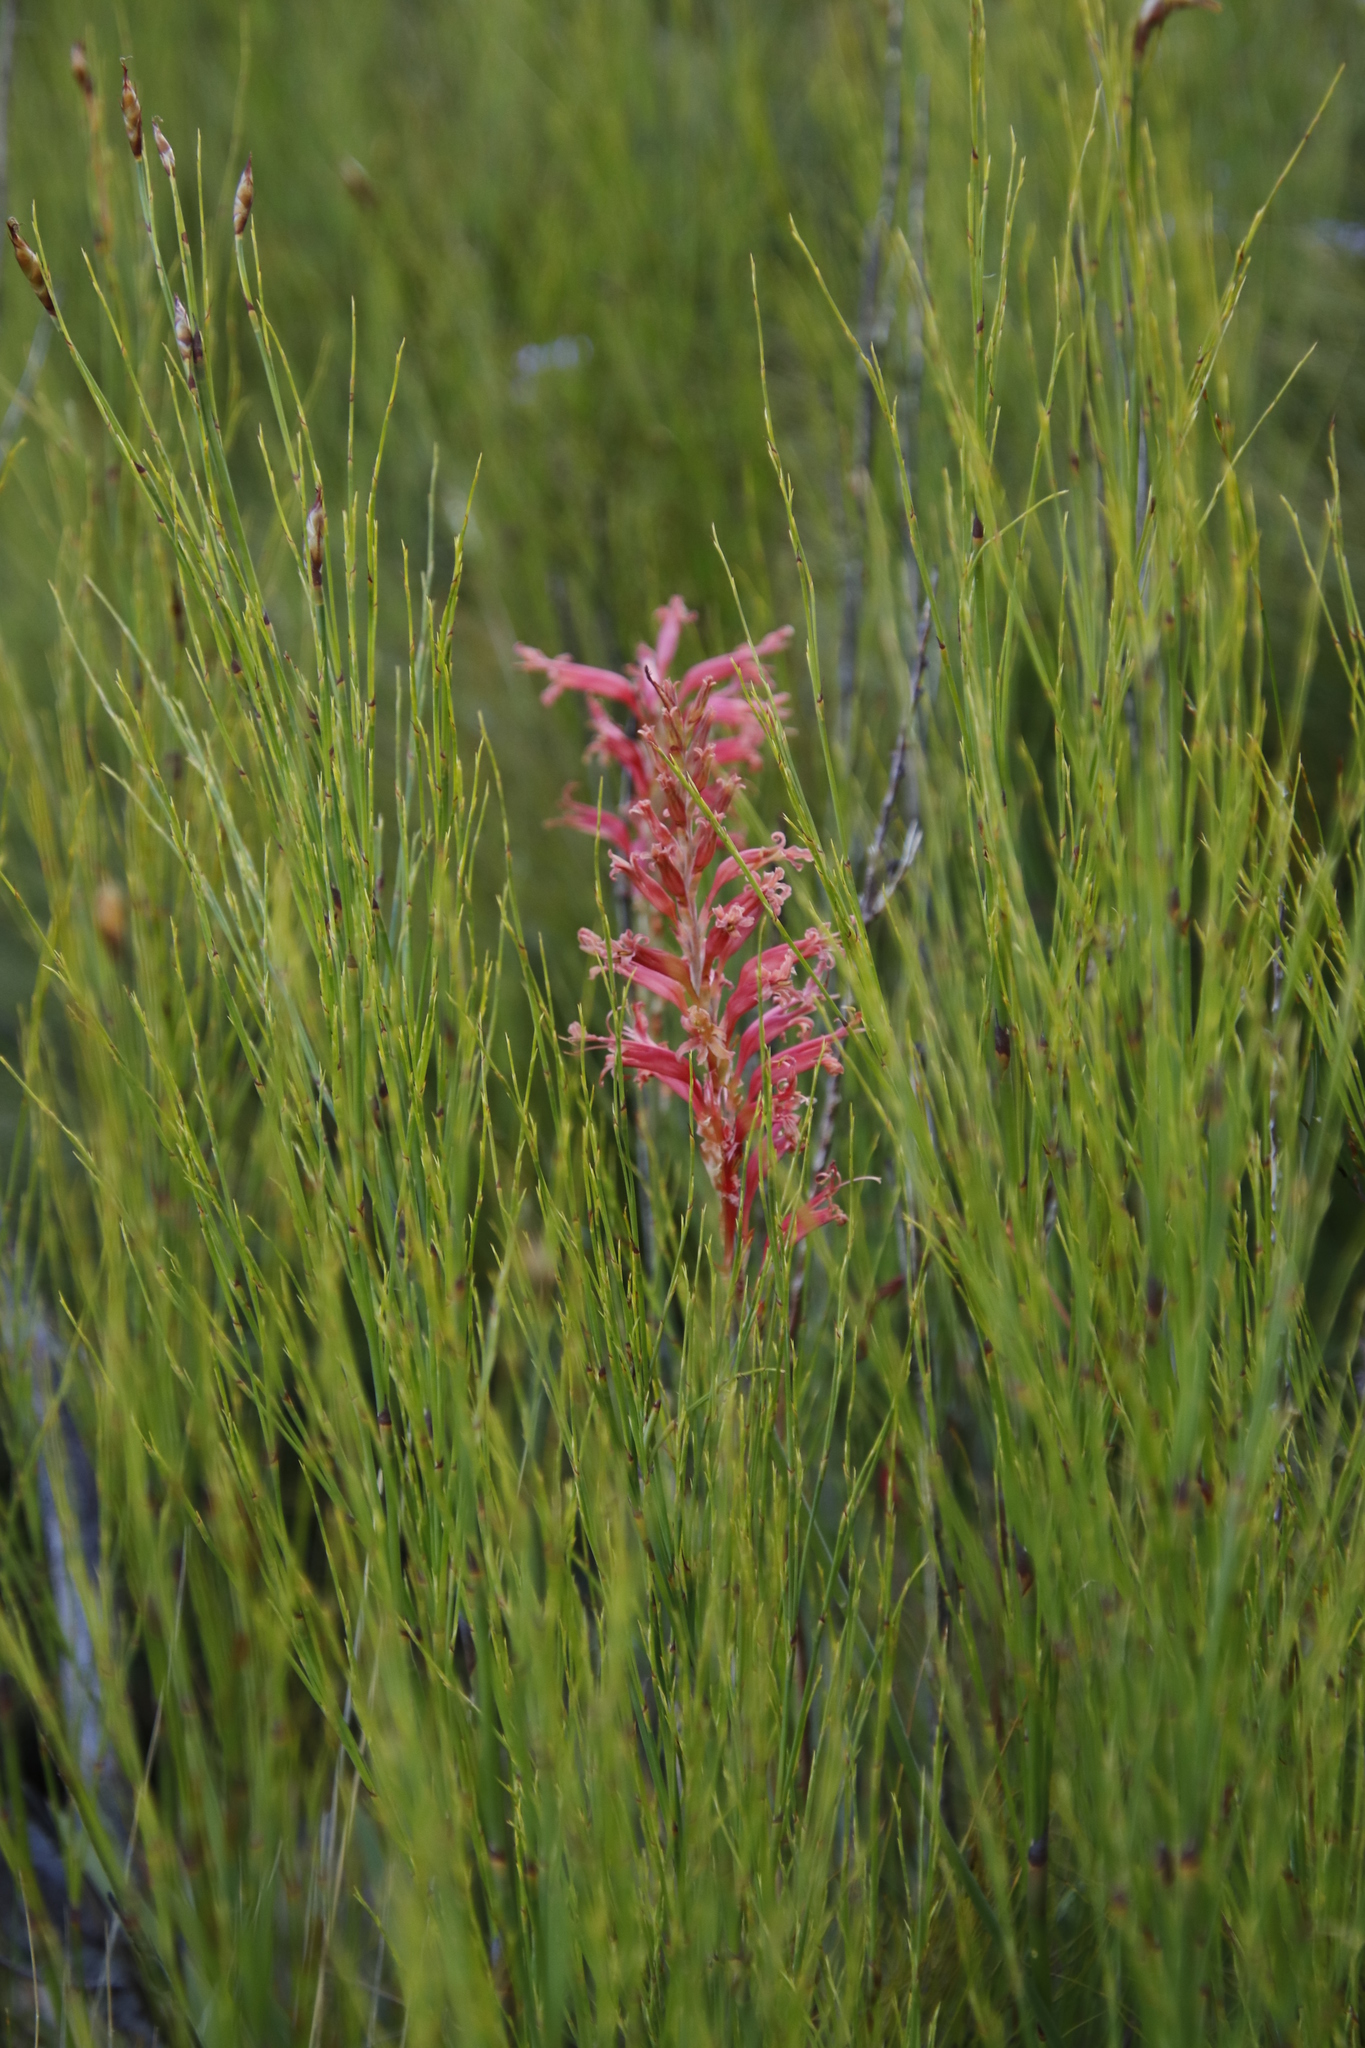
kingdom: Plantae
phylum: Tracheophyta
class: Liliopsida
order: Asparagales
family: Iridaceae
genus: Tritoniopsis
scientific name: Tritoniopsis antholyza
